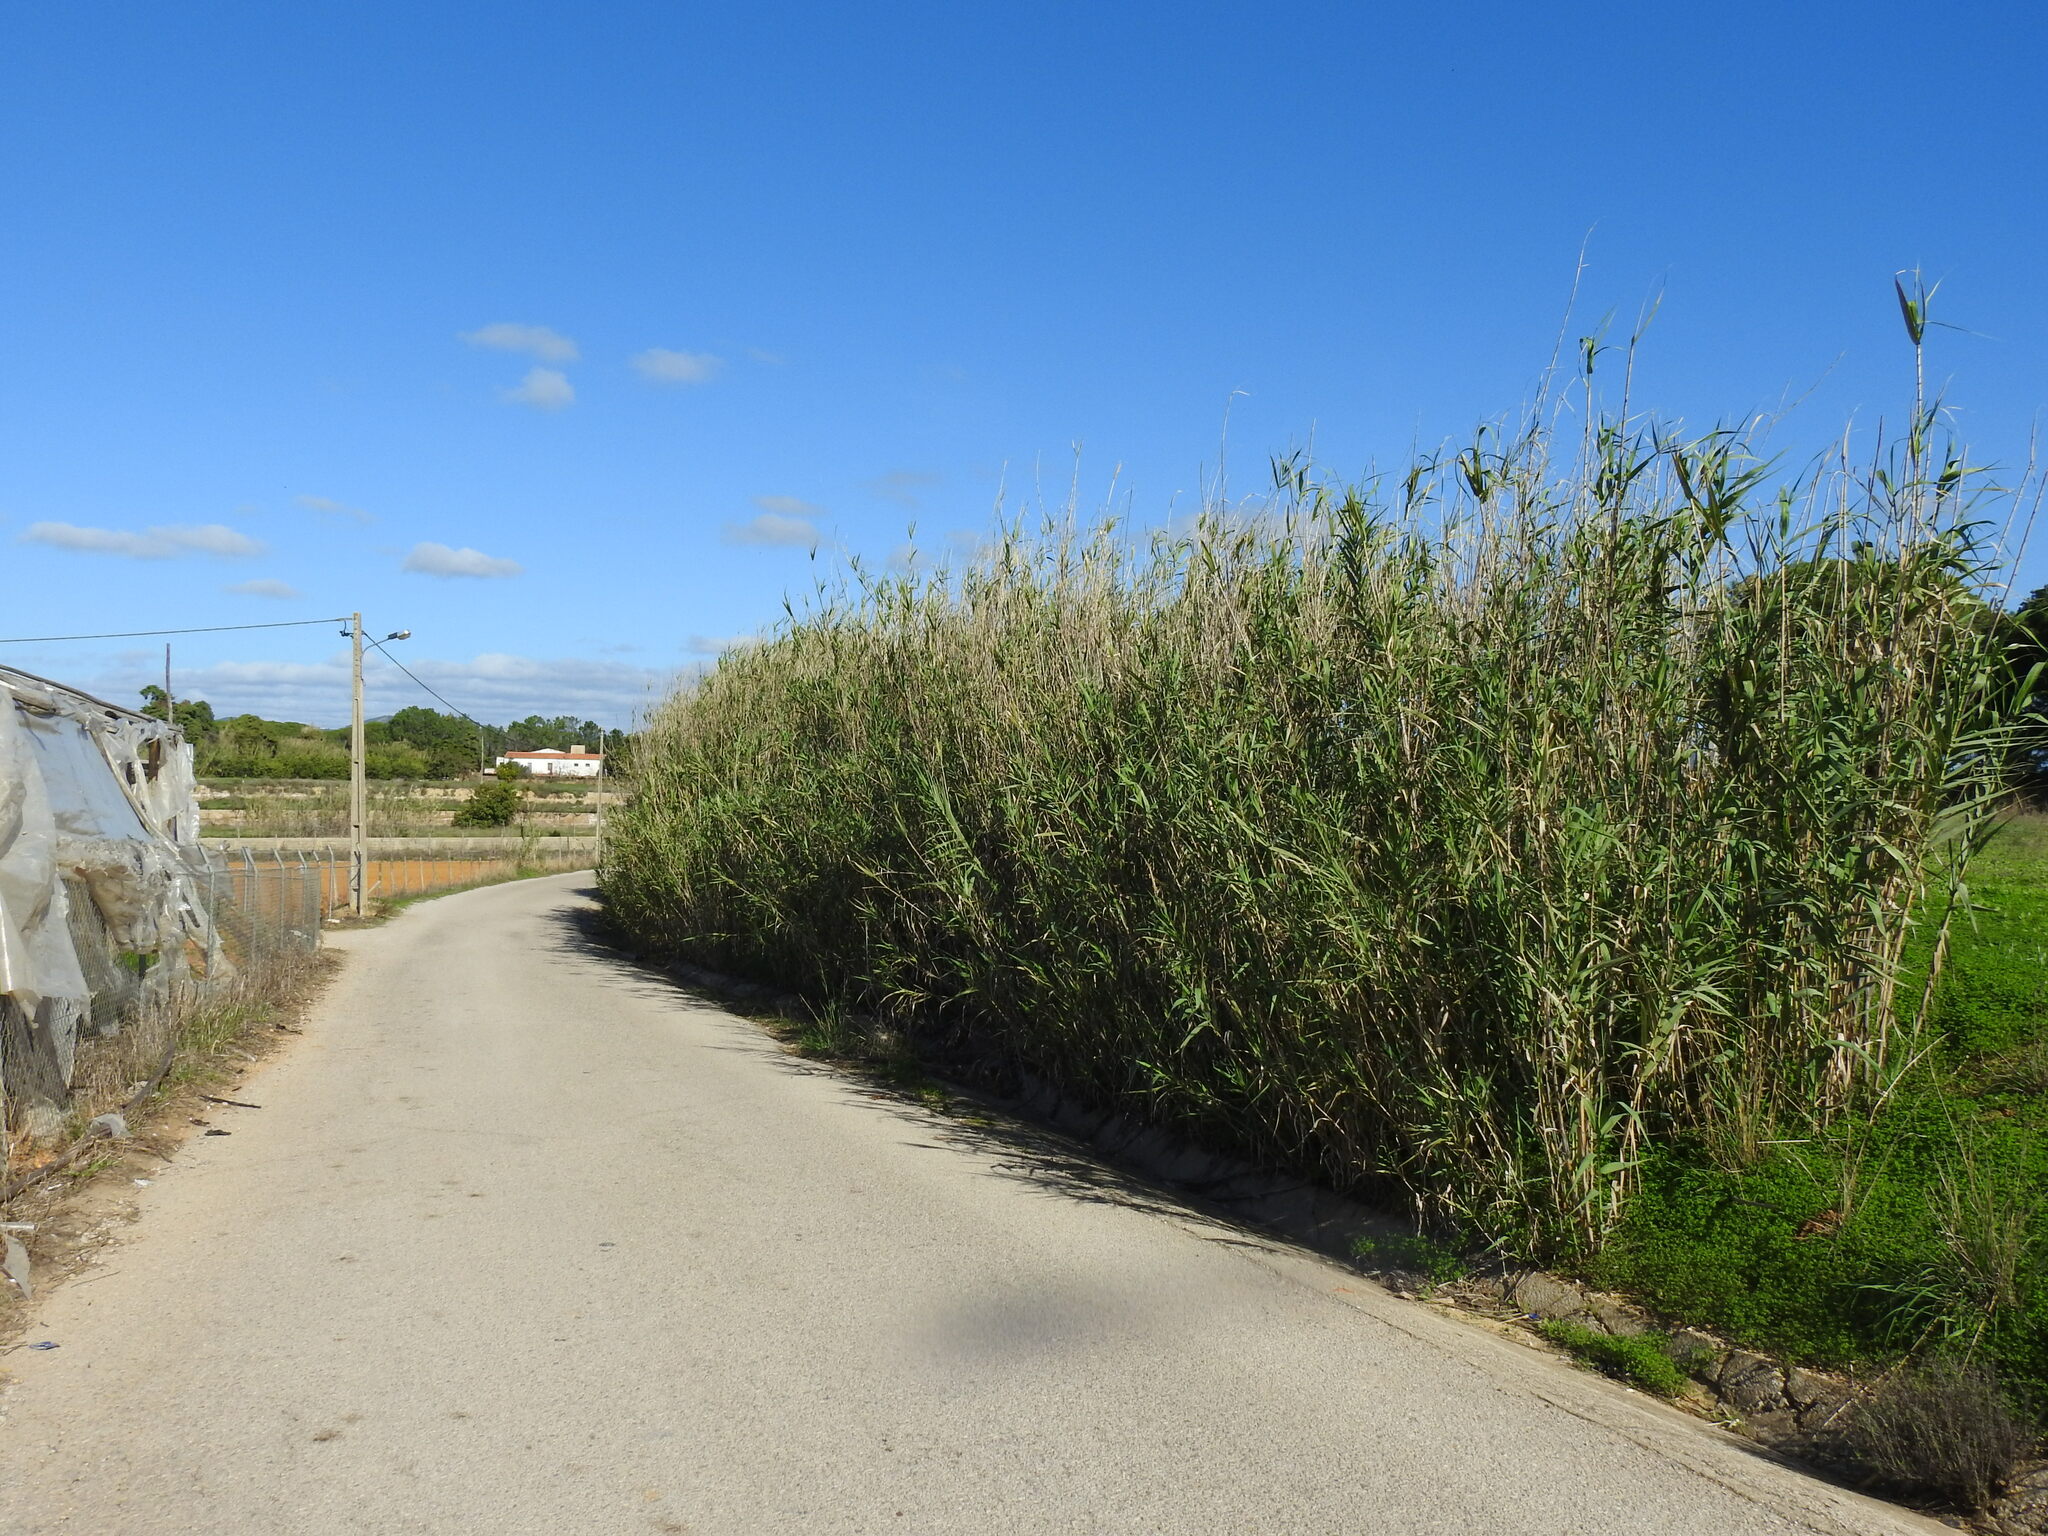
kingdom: Plantae
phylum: Tracheophyta
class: Liliopsida
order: Poales
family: Poaceae
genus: Arundo
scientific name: Arundo donax
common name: Giant reed
